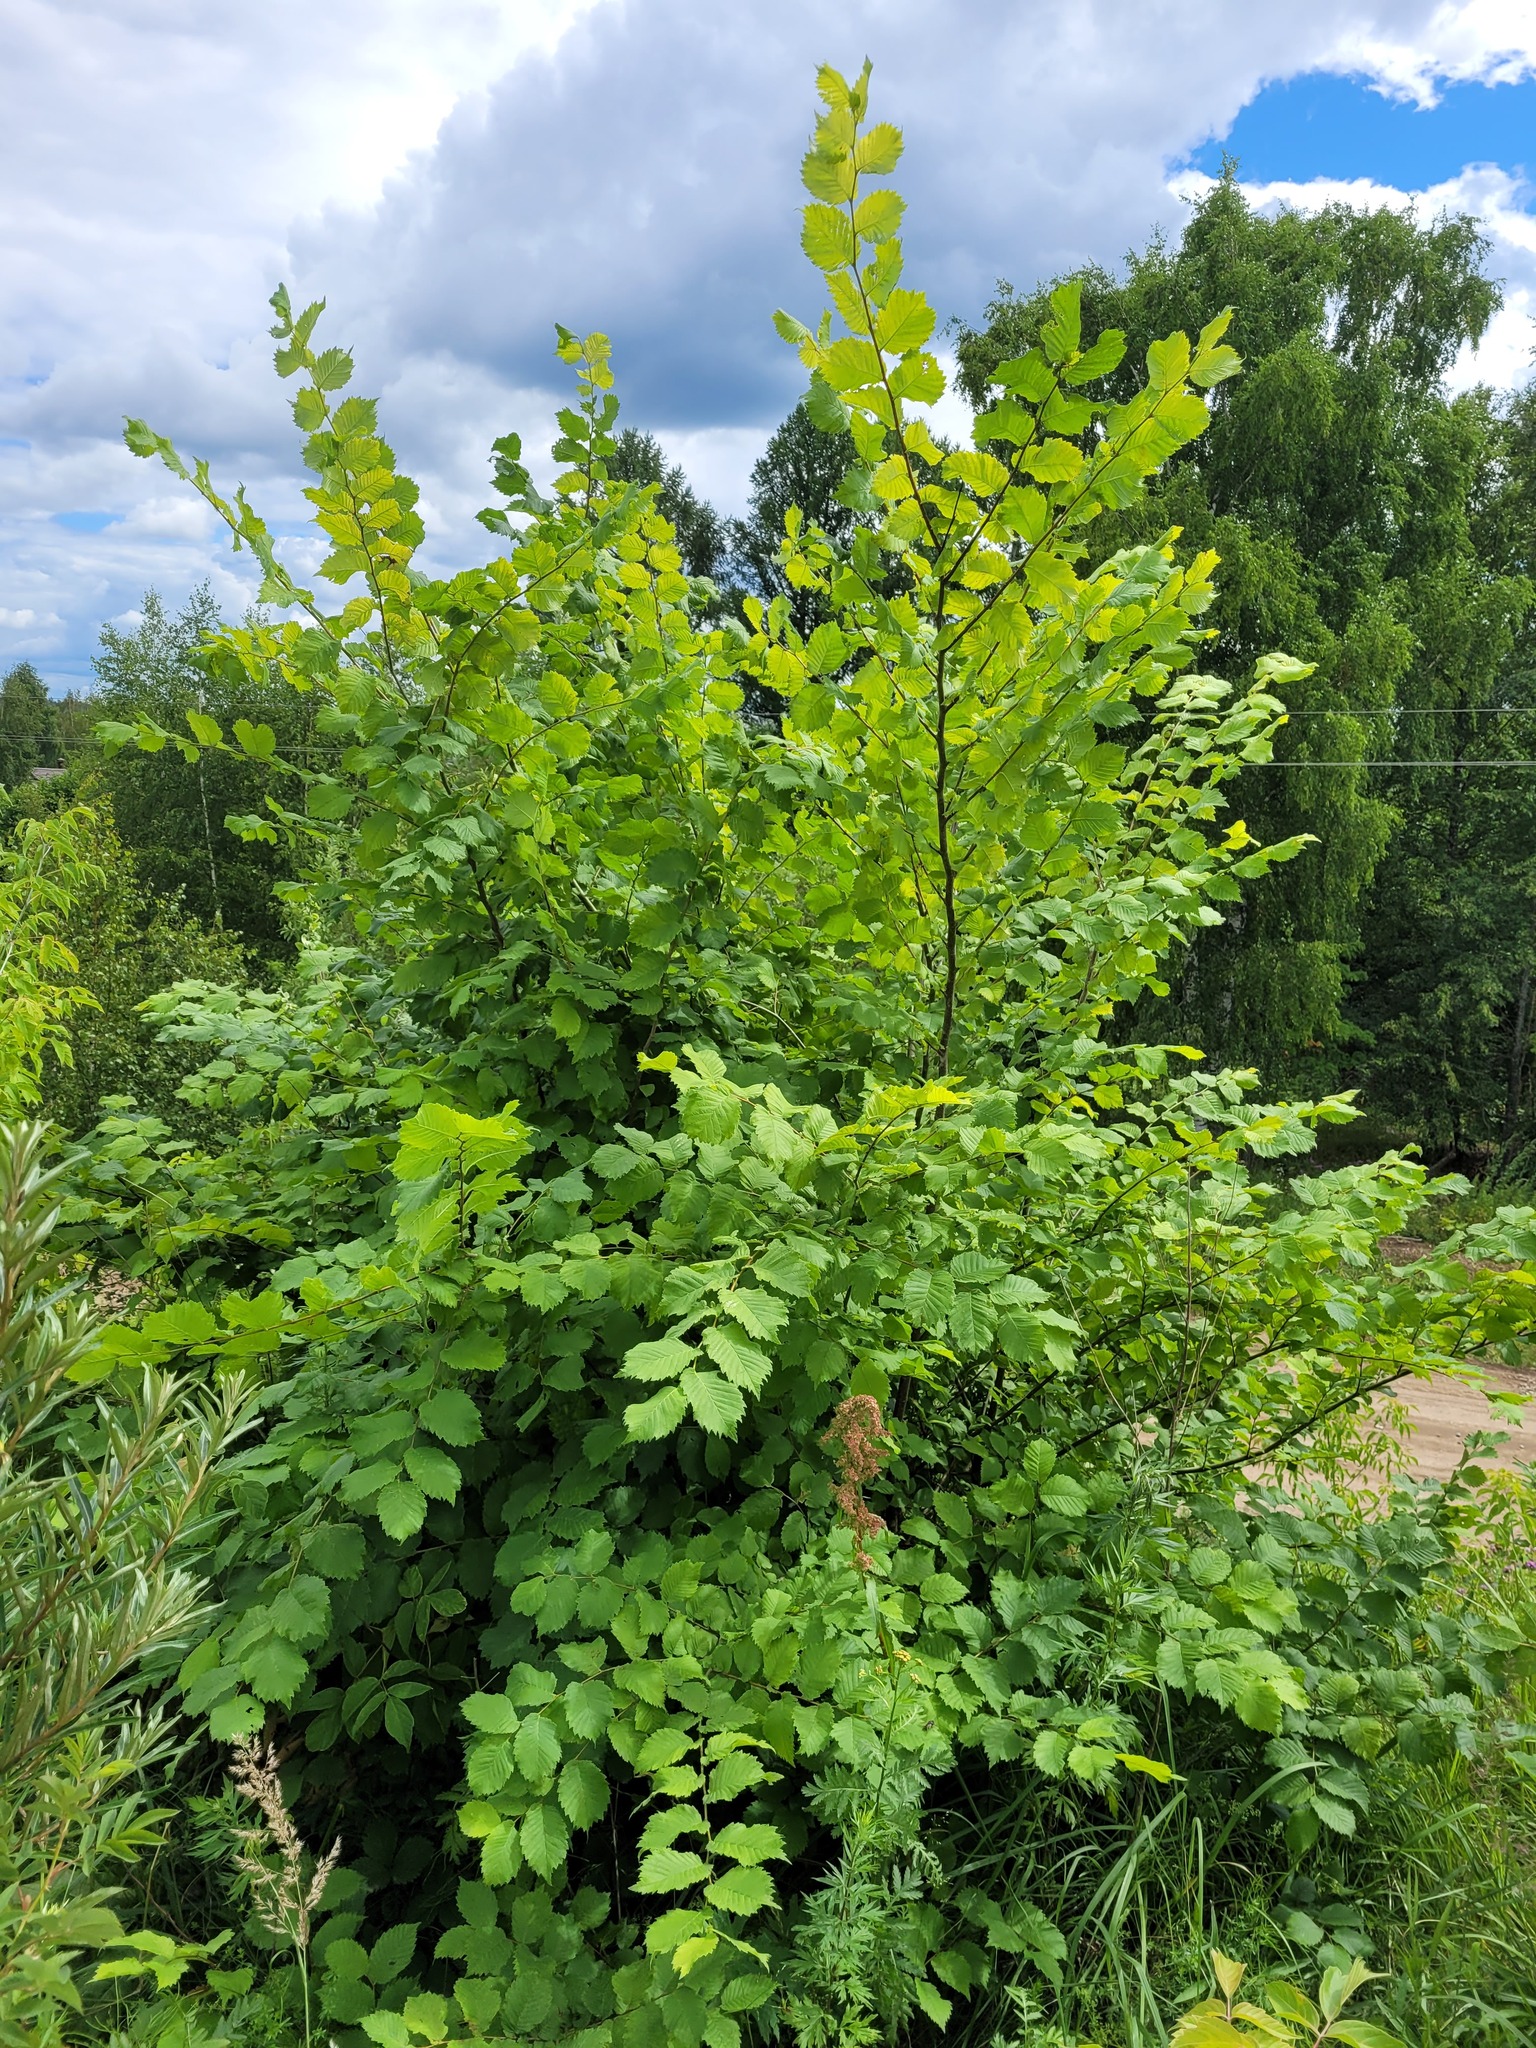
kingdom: Plantae
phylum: Tracheophyta
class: Magnoliopsida
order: Rosales
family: Ulmaceae
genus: Ulmus
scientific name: Ulmus laevis
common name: European white-elm
